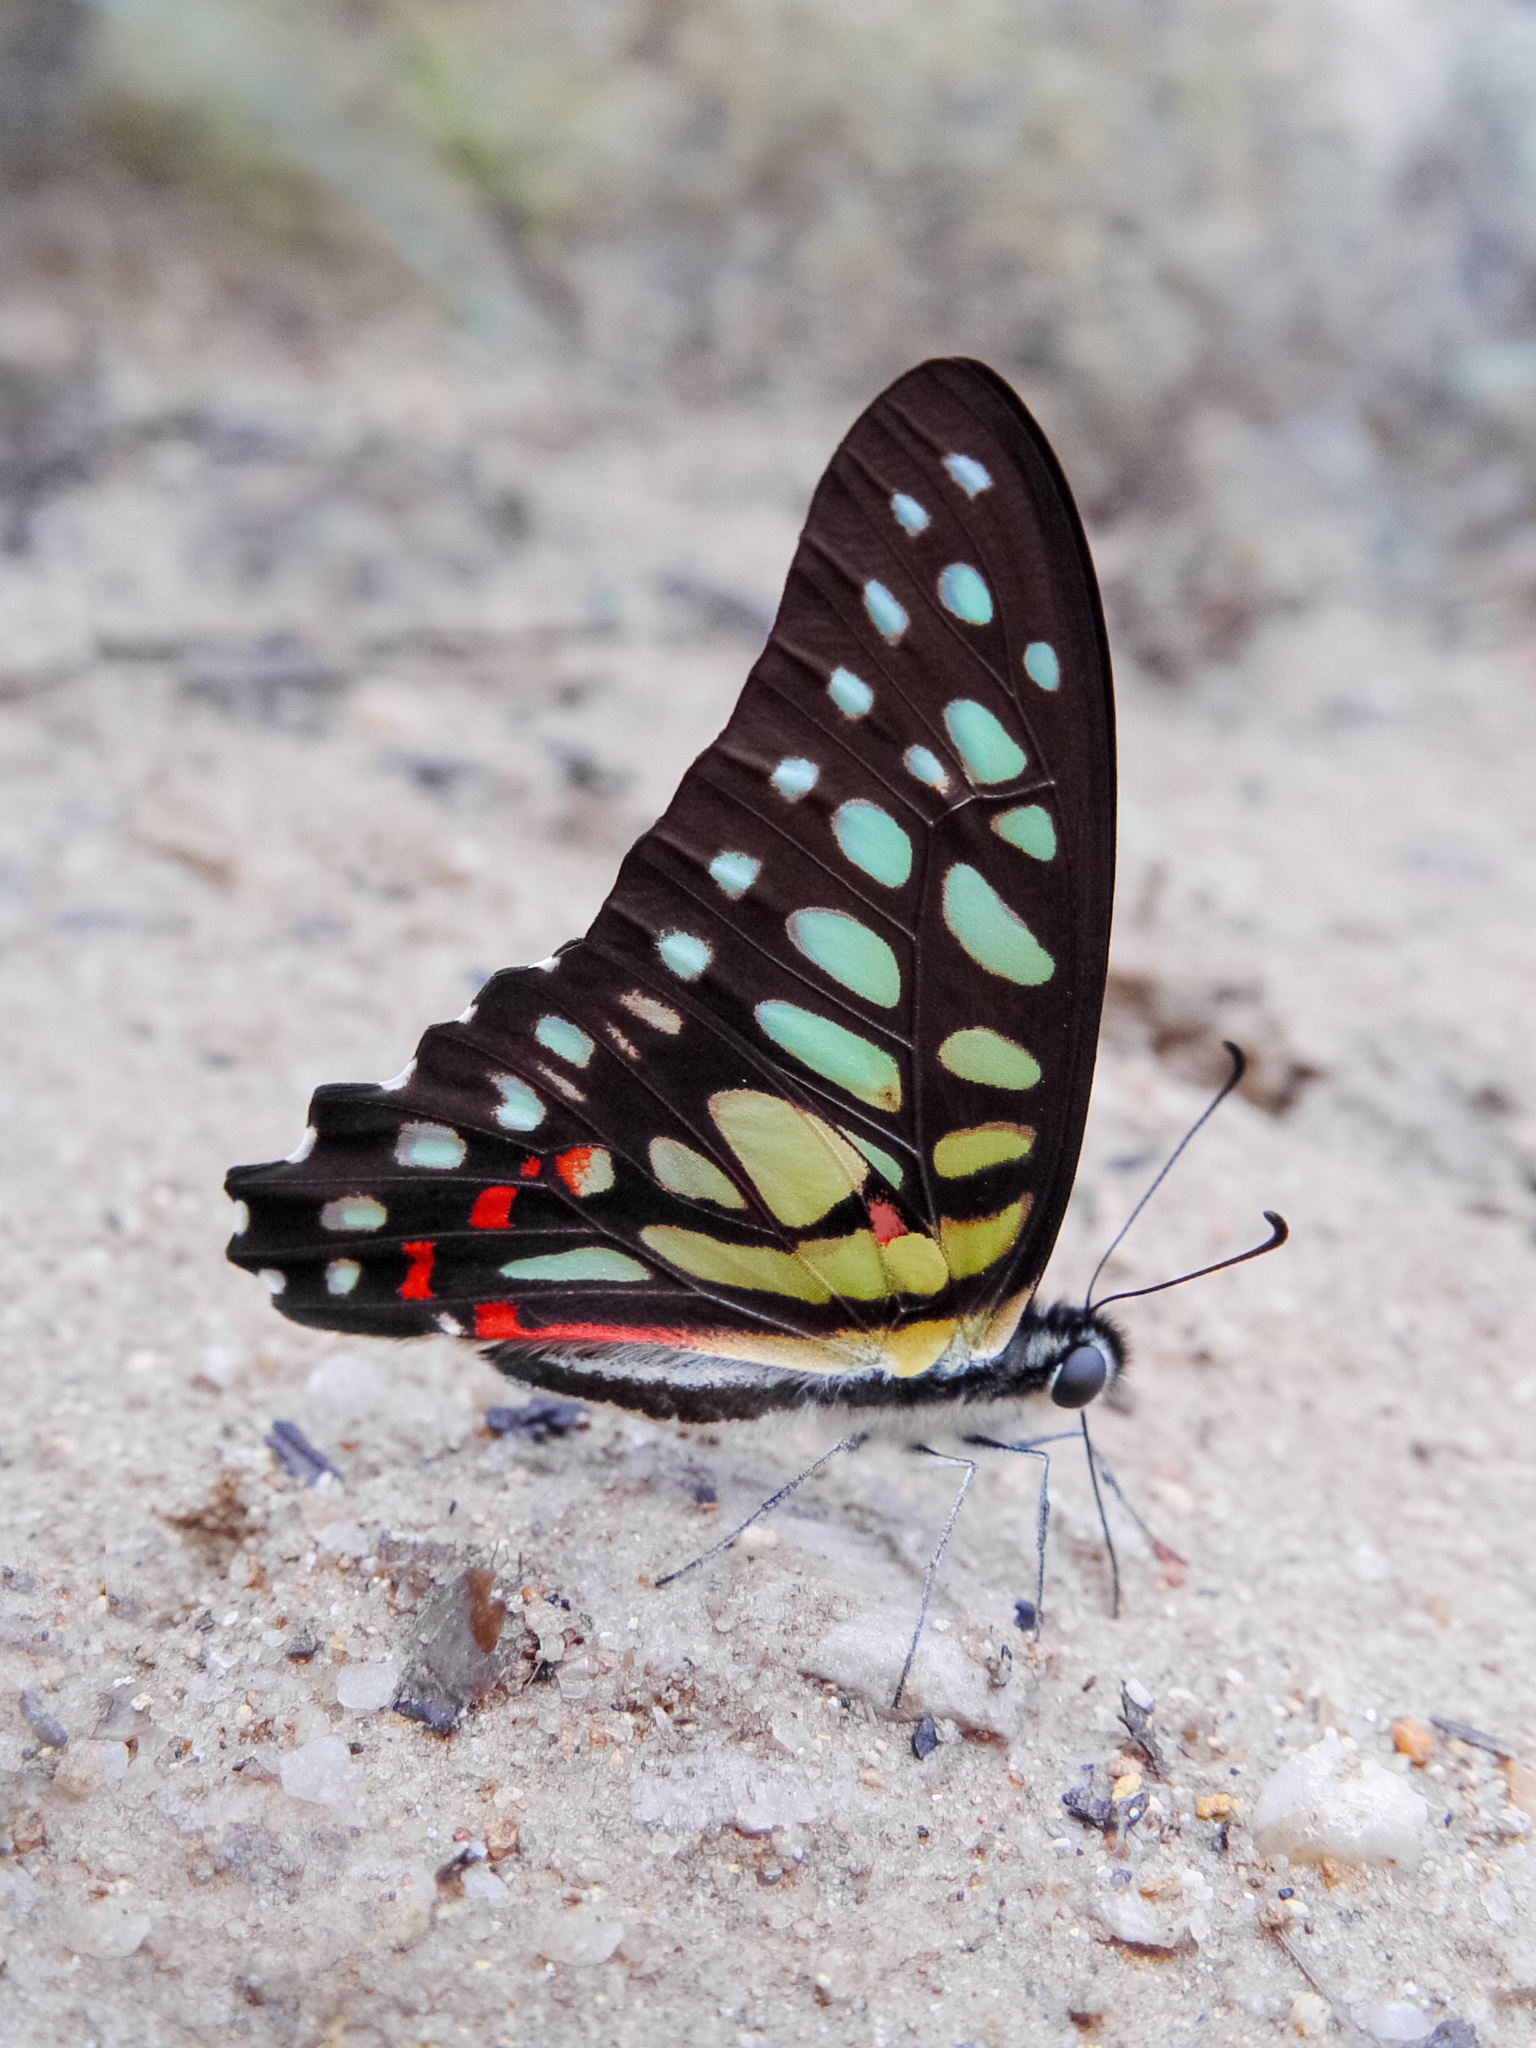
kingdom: Animalia
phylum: Arthropoda
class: Insecta
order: Lepidoptera
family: Papilionidae
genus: Graphium
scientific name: Graphium arycles
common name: Spotted jay
